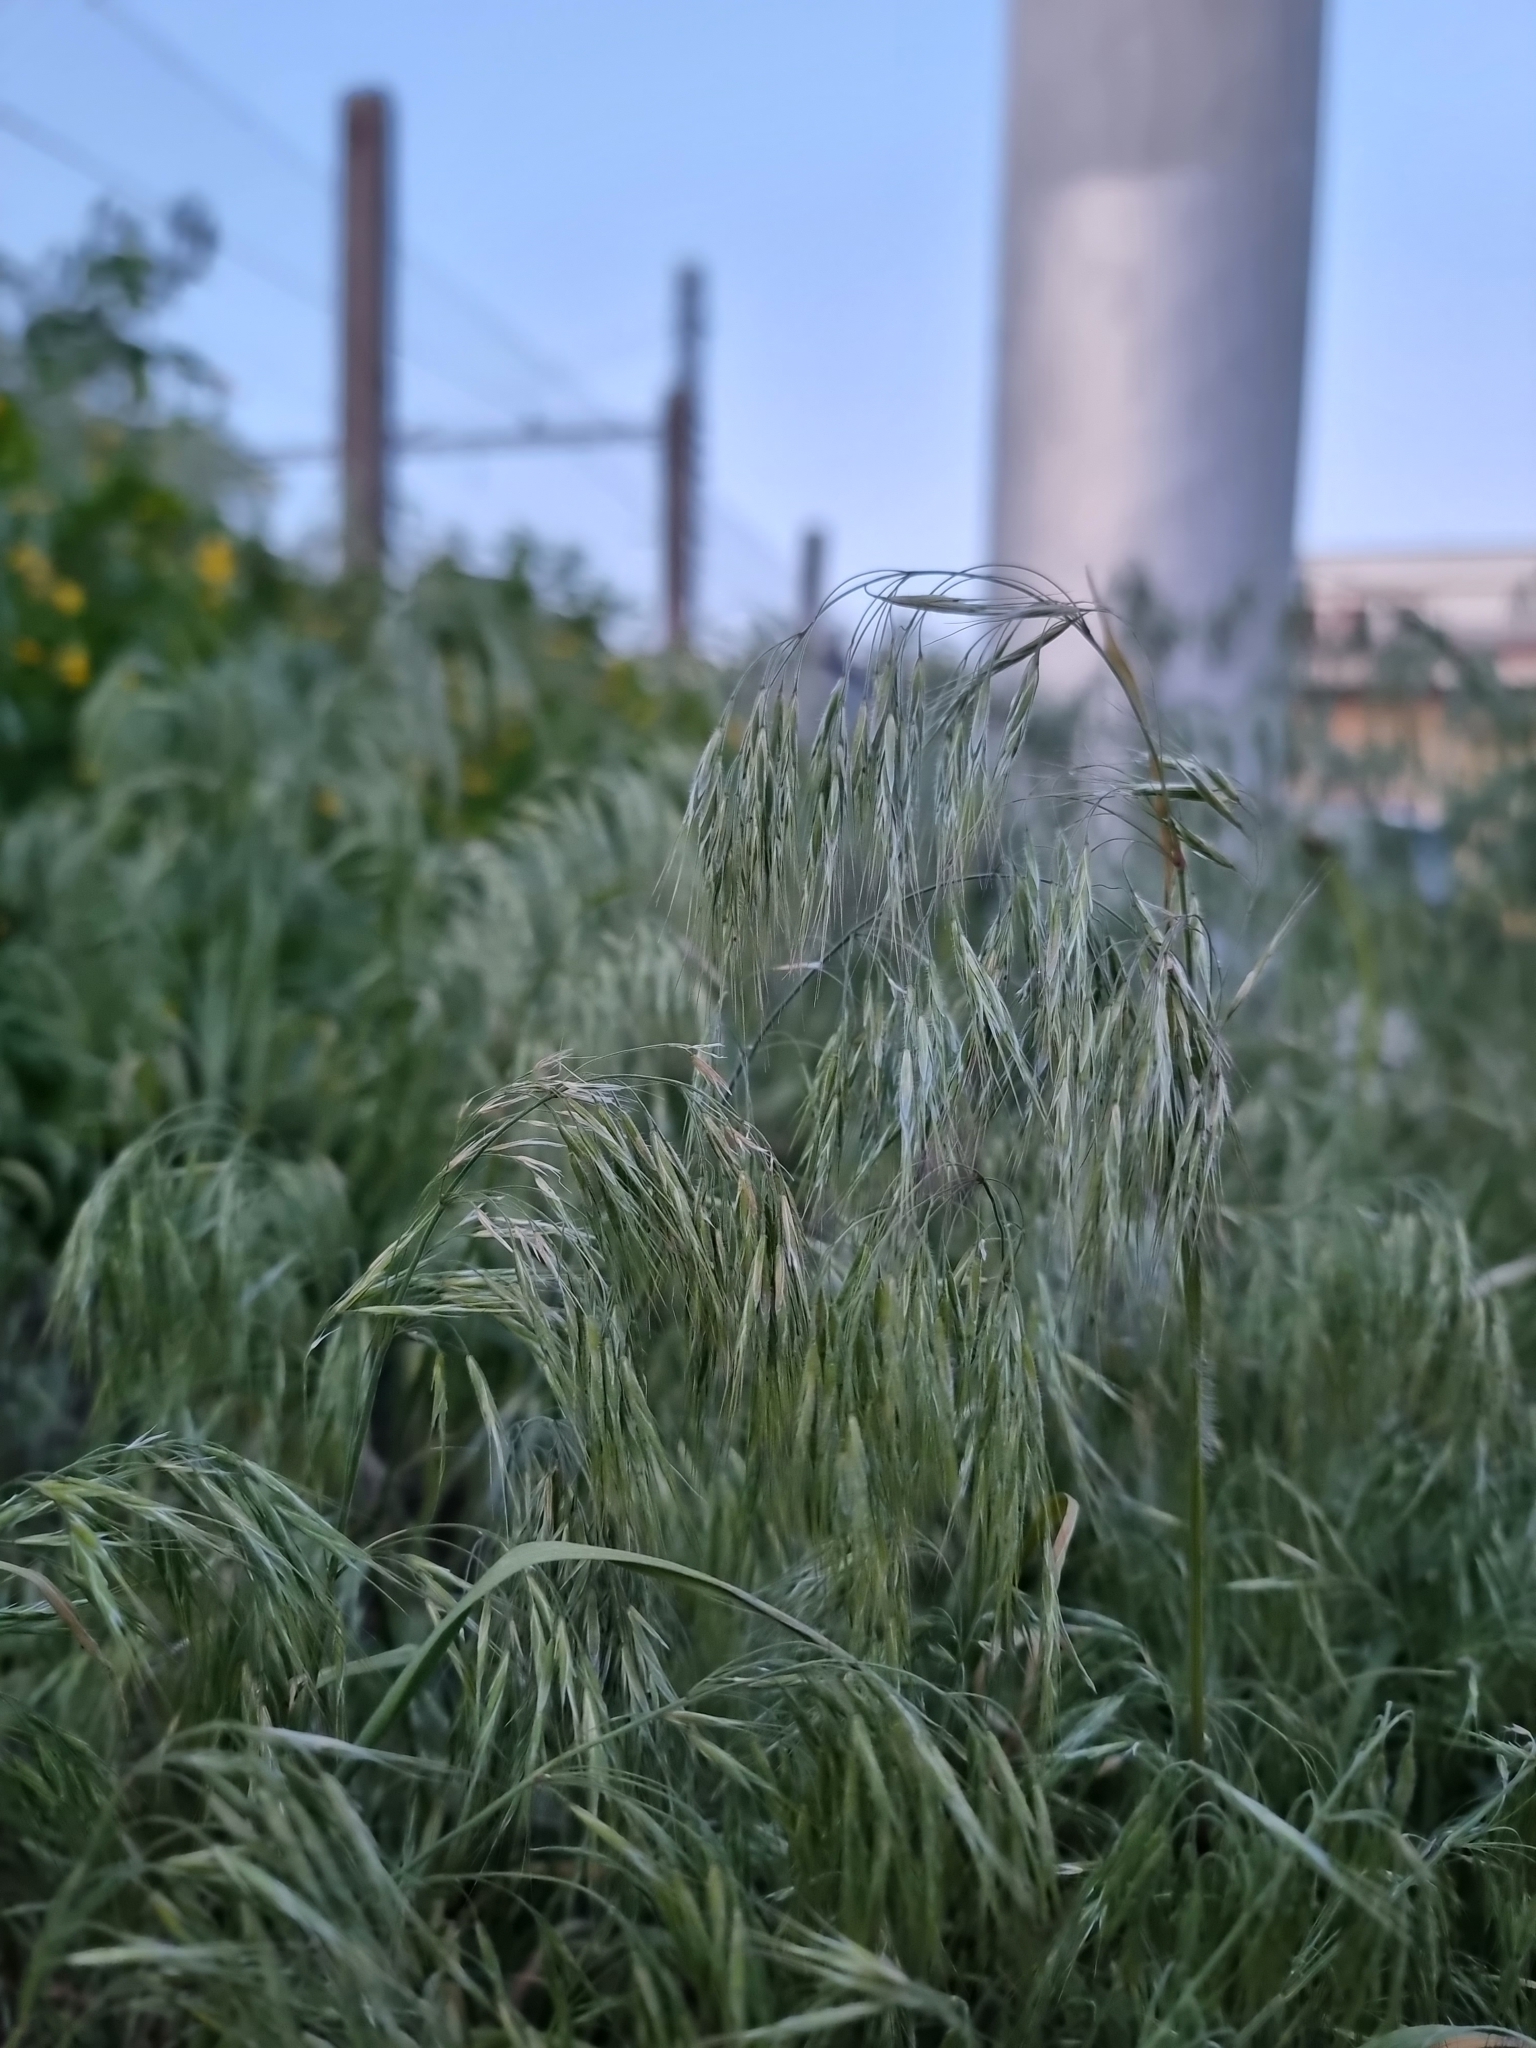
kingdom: Plantae
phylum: Tracheophyta
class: Liliopsida
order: Poales
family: Poaceae
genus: Bromus
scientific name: Bromus tectorum
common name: Cheatgrass
